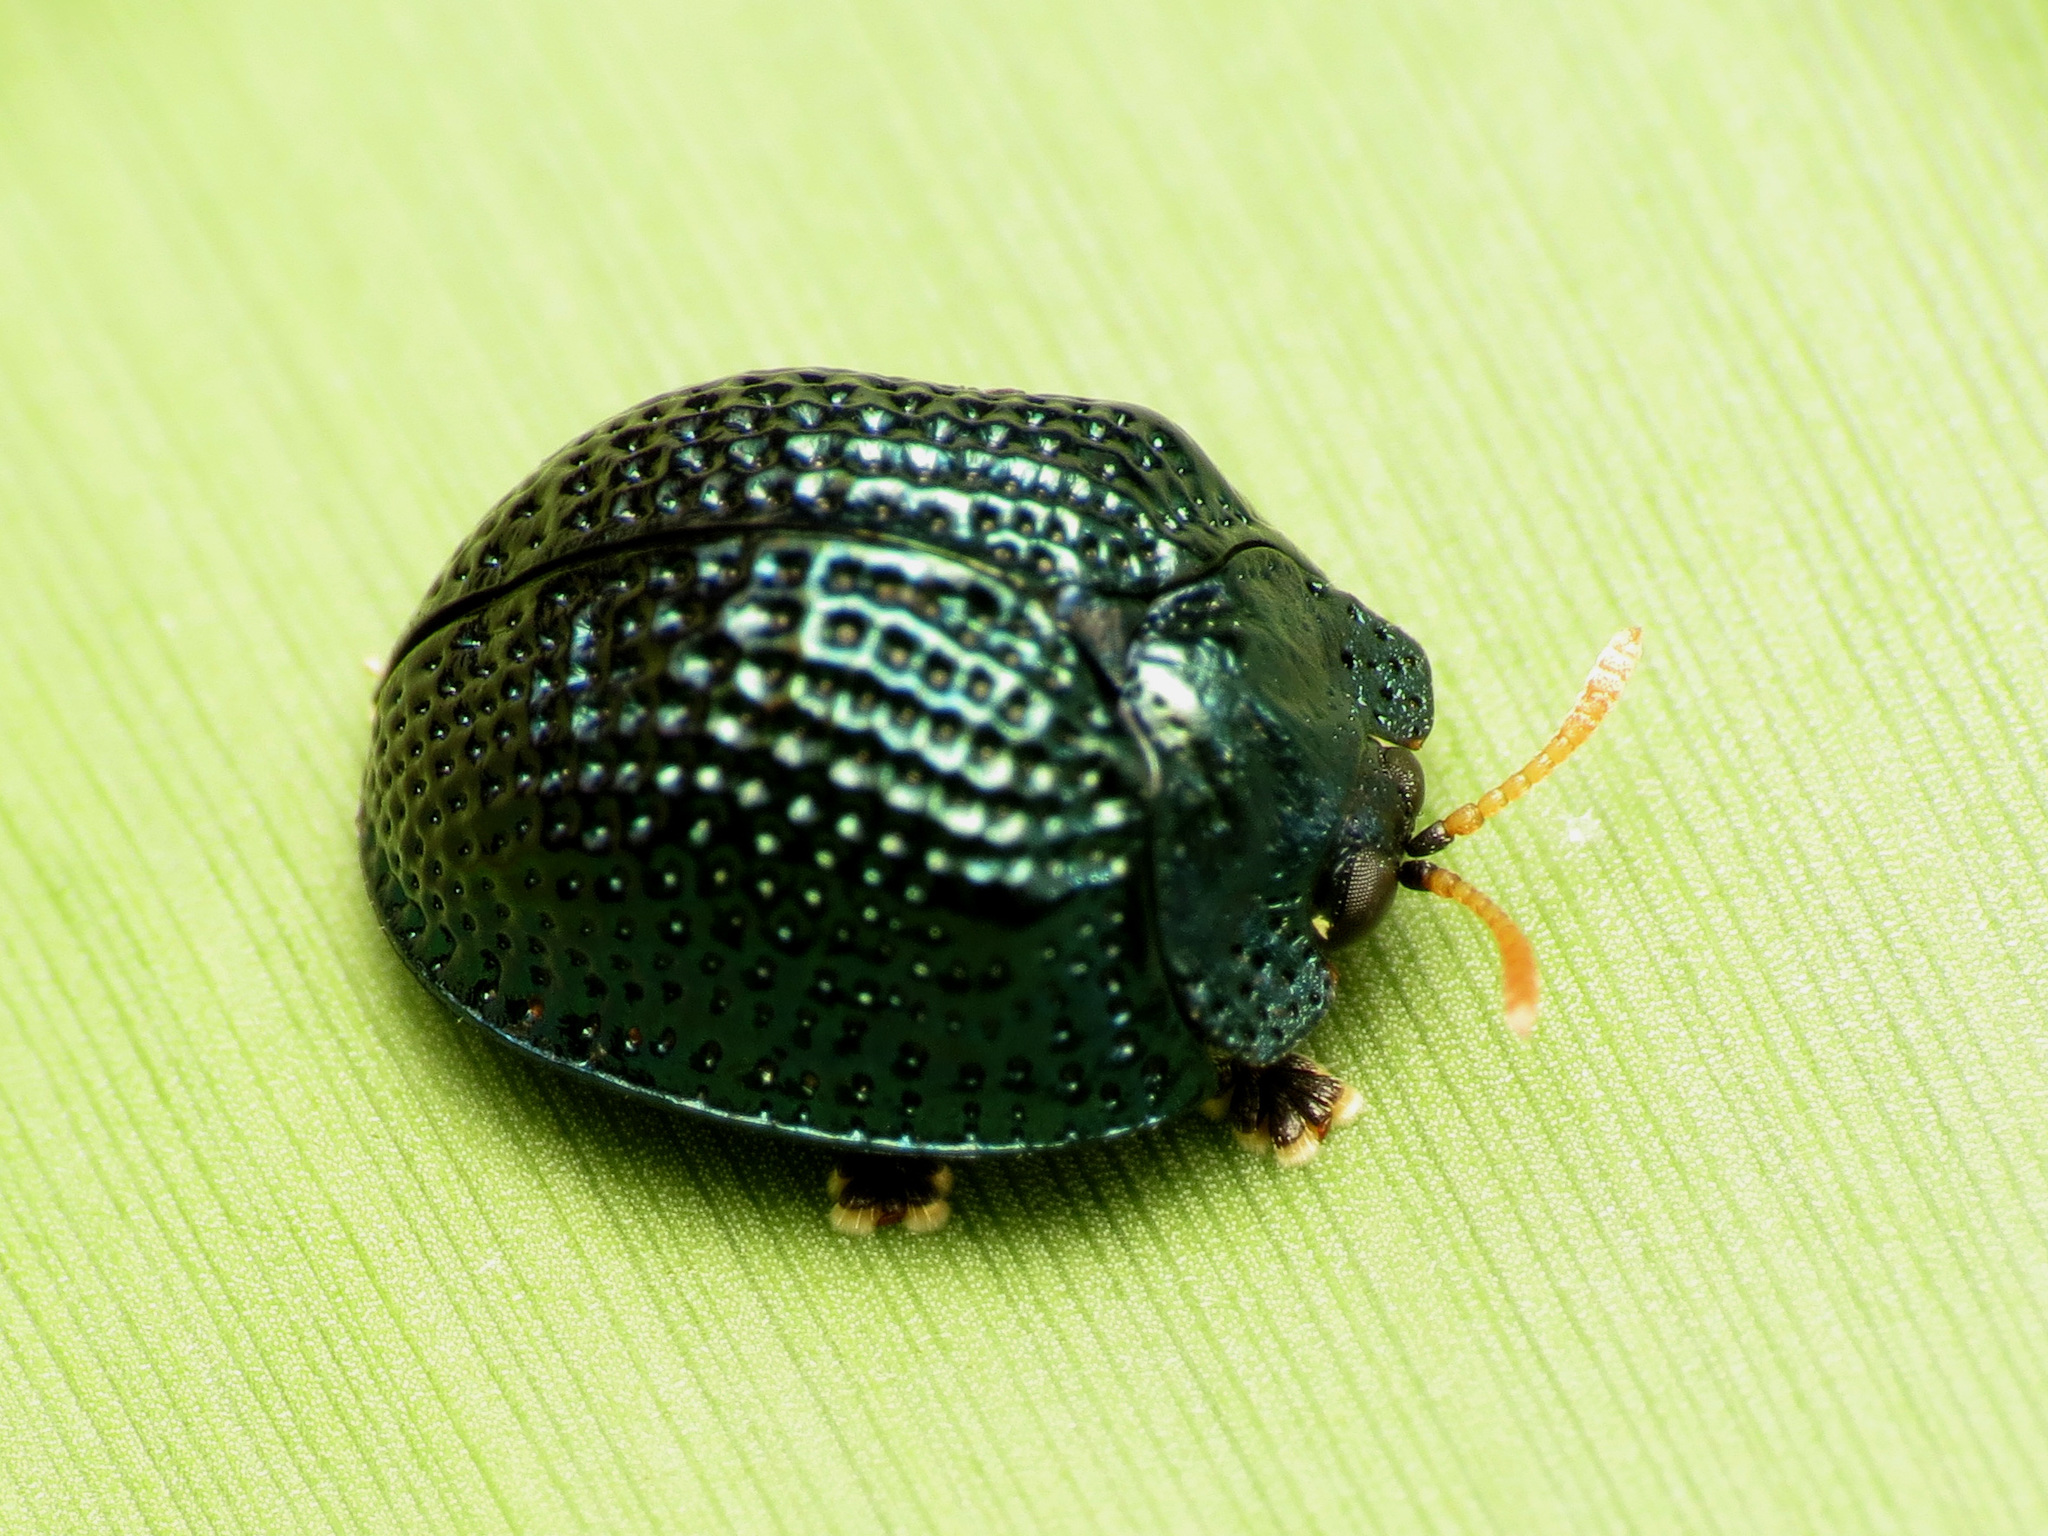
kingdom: Animalia
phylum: Arthropoda
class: Insecta
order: Coleoptera
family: Chrysomelidae
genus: Hemisphaerota
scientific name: Hemisphaerota cyanea
